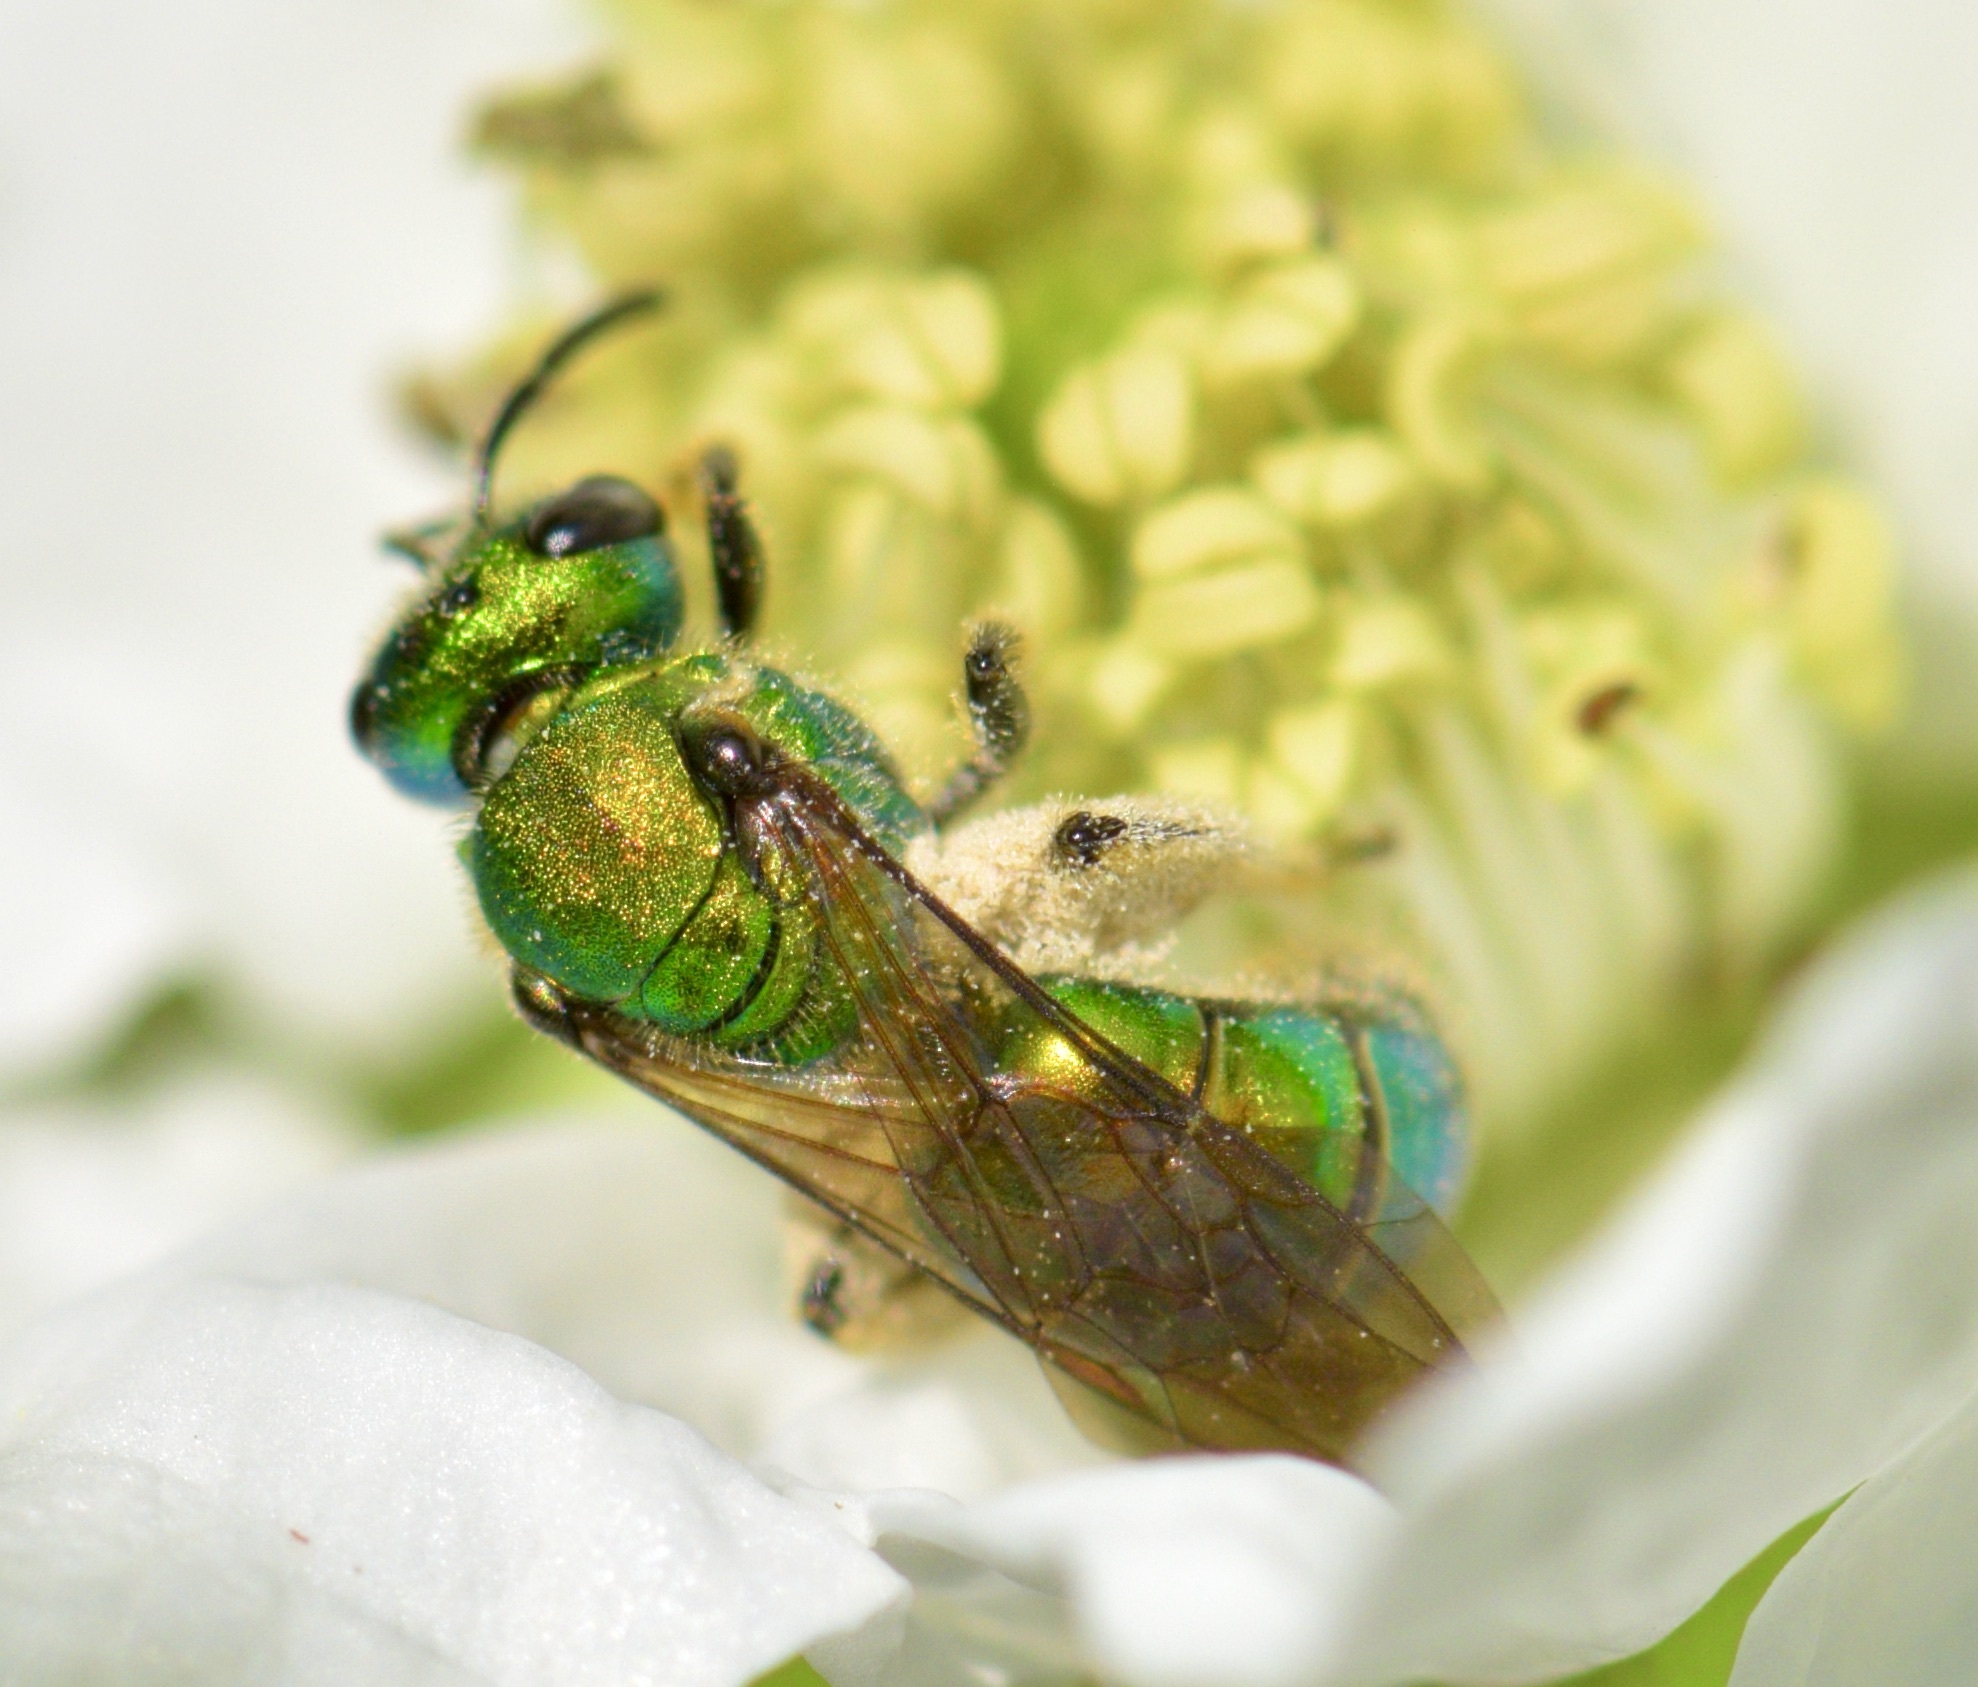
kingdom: Animalia
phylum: Arthropoda
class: Insecta
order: Hymenoptera
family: Halictidae
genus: Augochlora
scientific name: Augochlora pura
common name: Pure green sweat bee
